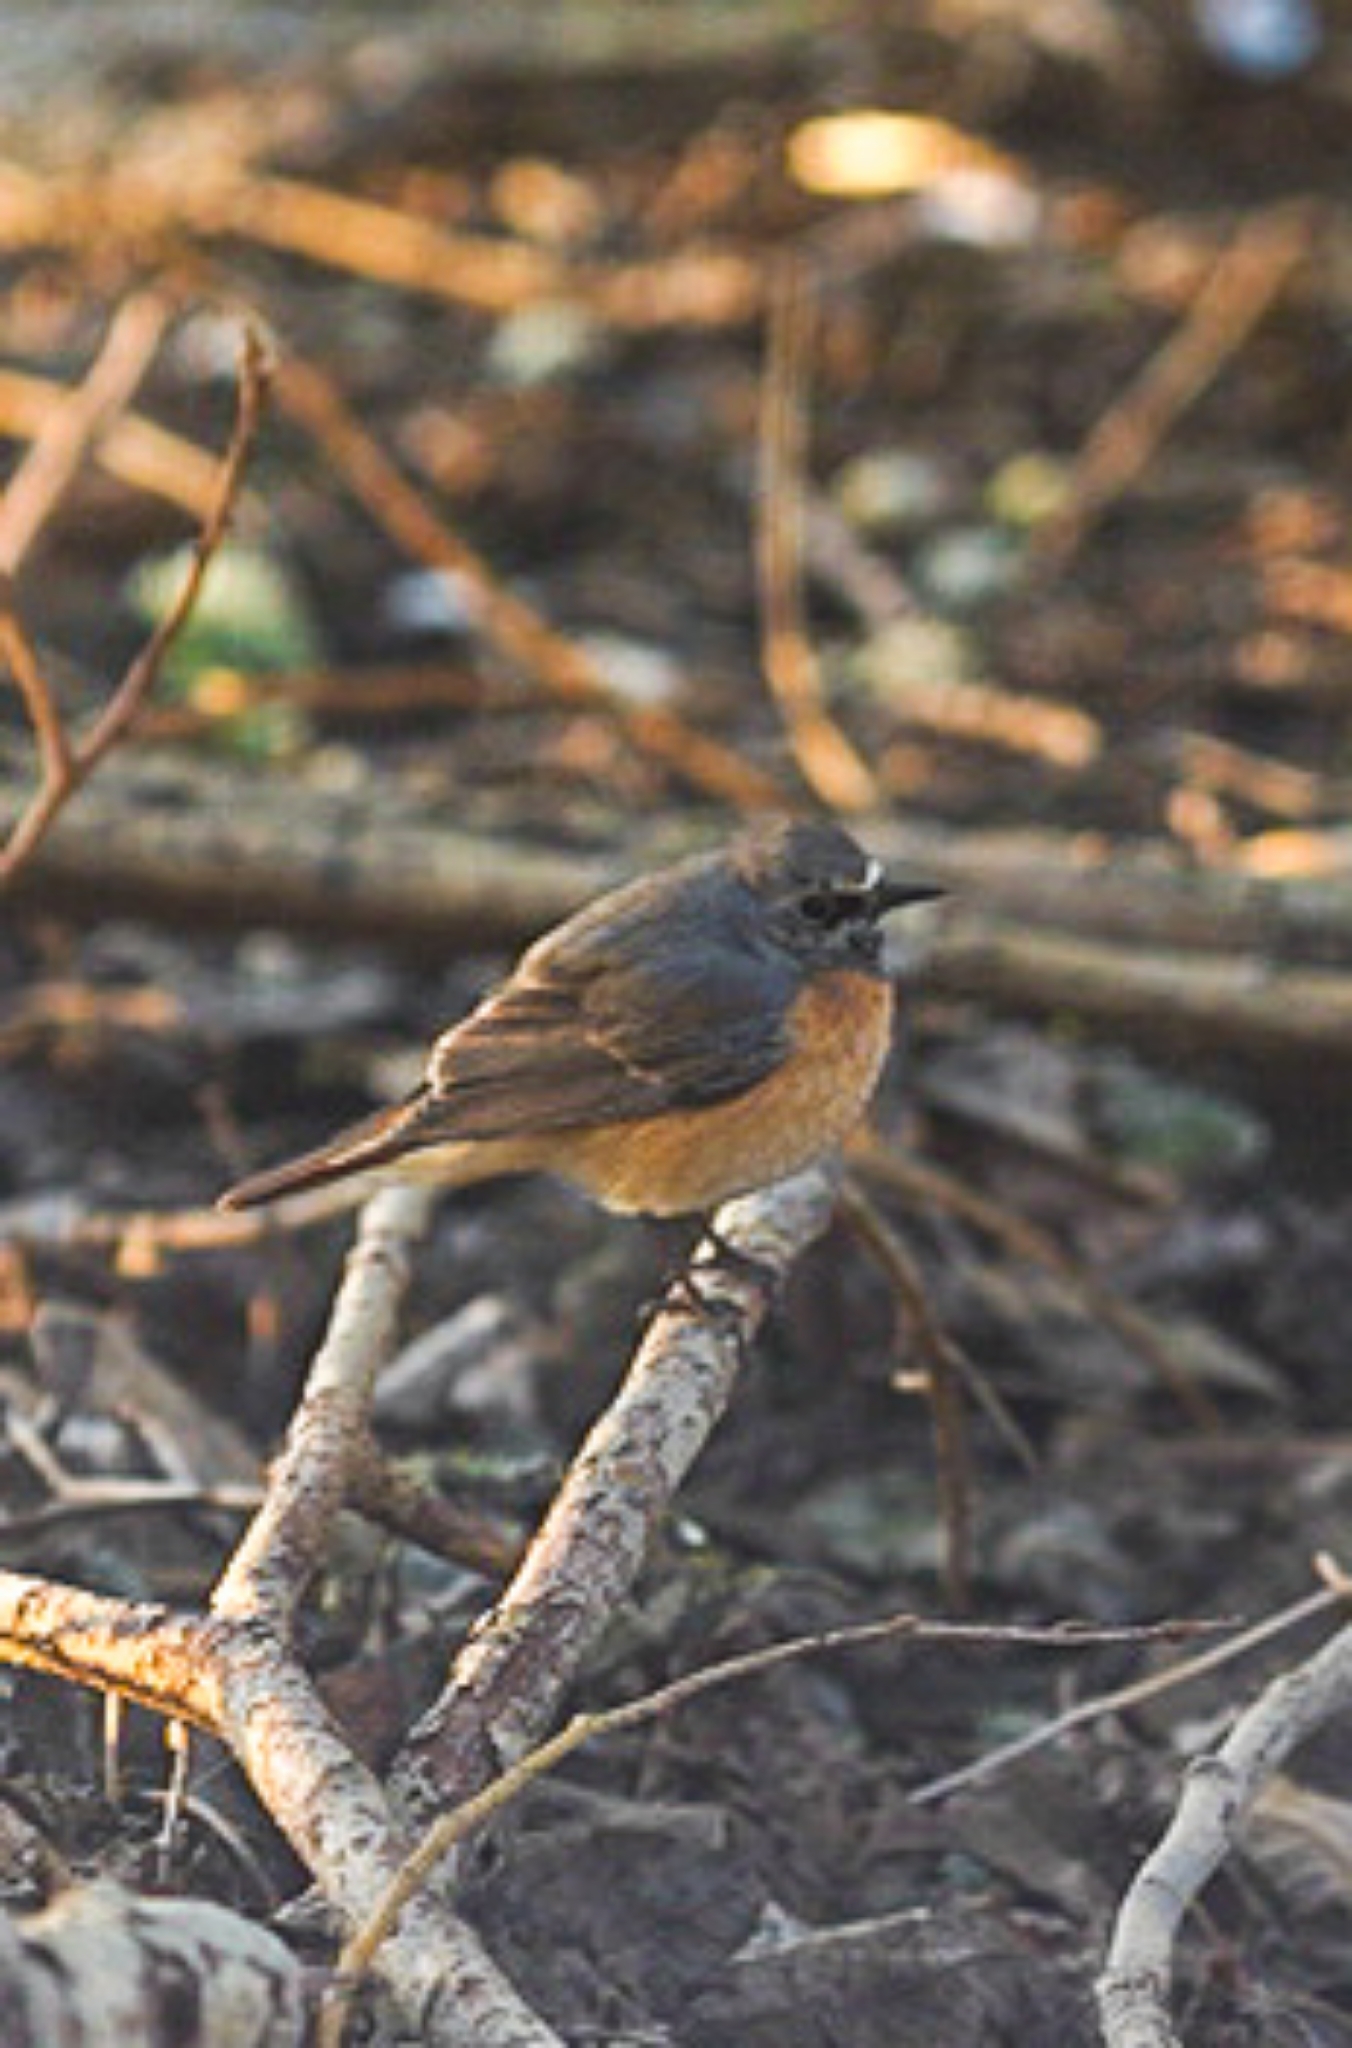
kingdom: Animalia
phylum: Chordata
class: Aves
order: Passeriformes
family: Muscicapidae
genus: Phoenicurus
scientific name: Phoenicurus phoenicurus
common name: Common redstart
